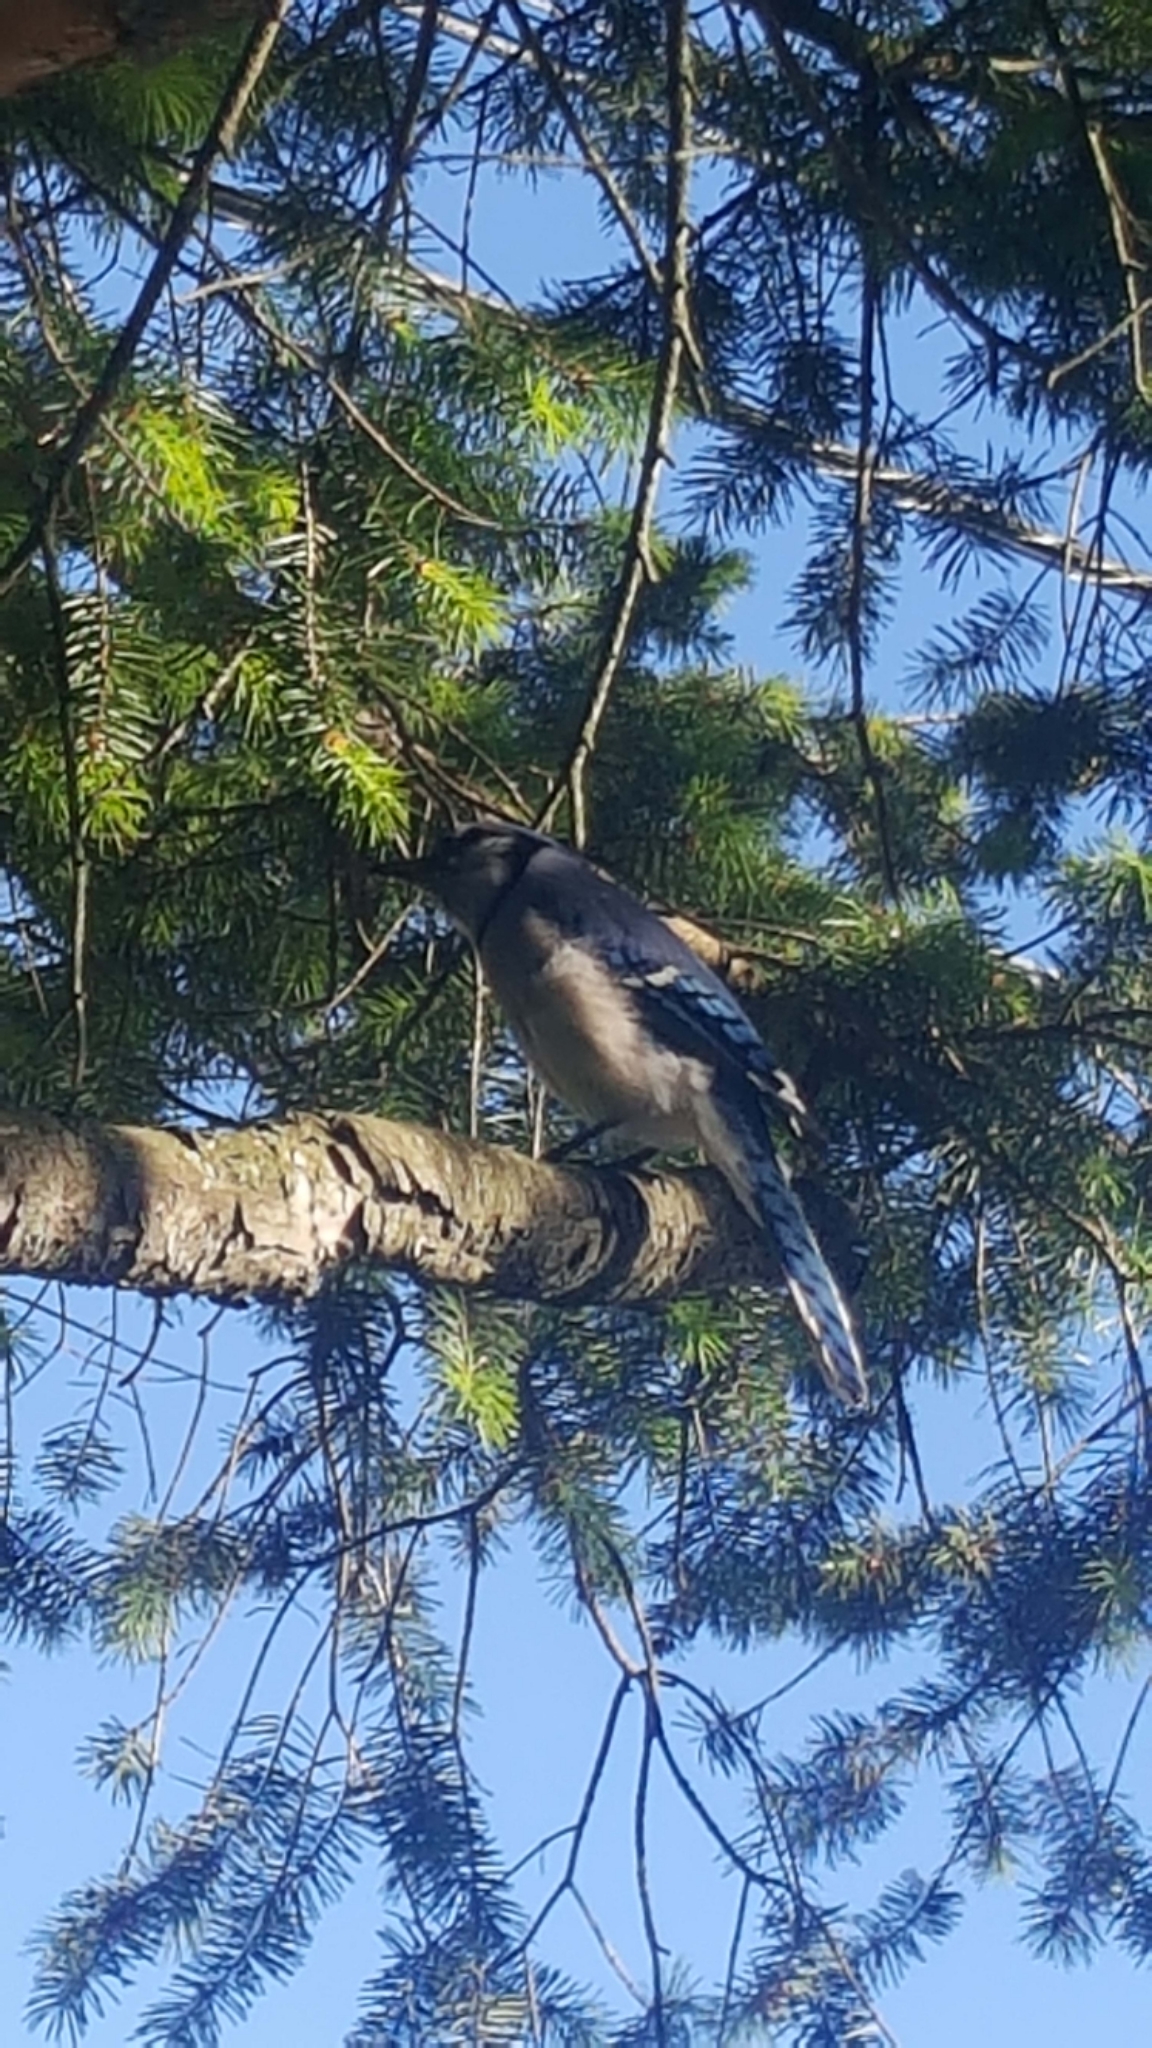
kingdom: Animalia
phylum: Chordata
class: Aves
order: Passeriformes
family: Corvidae
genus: Cyanocitta
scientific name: Cyanocitta cristata
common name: Blue jay
